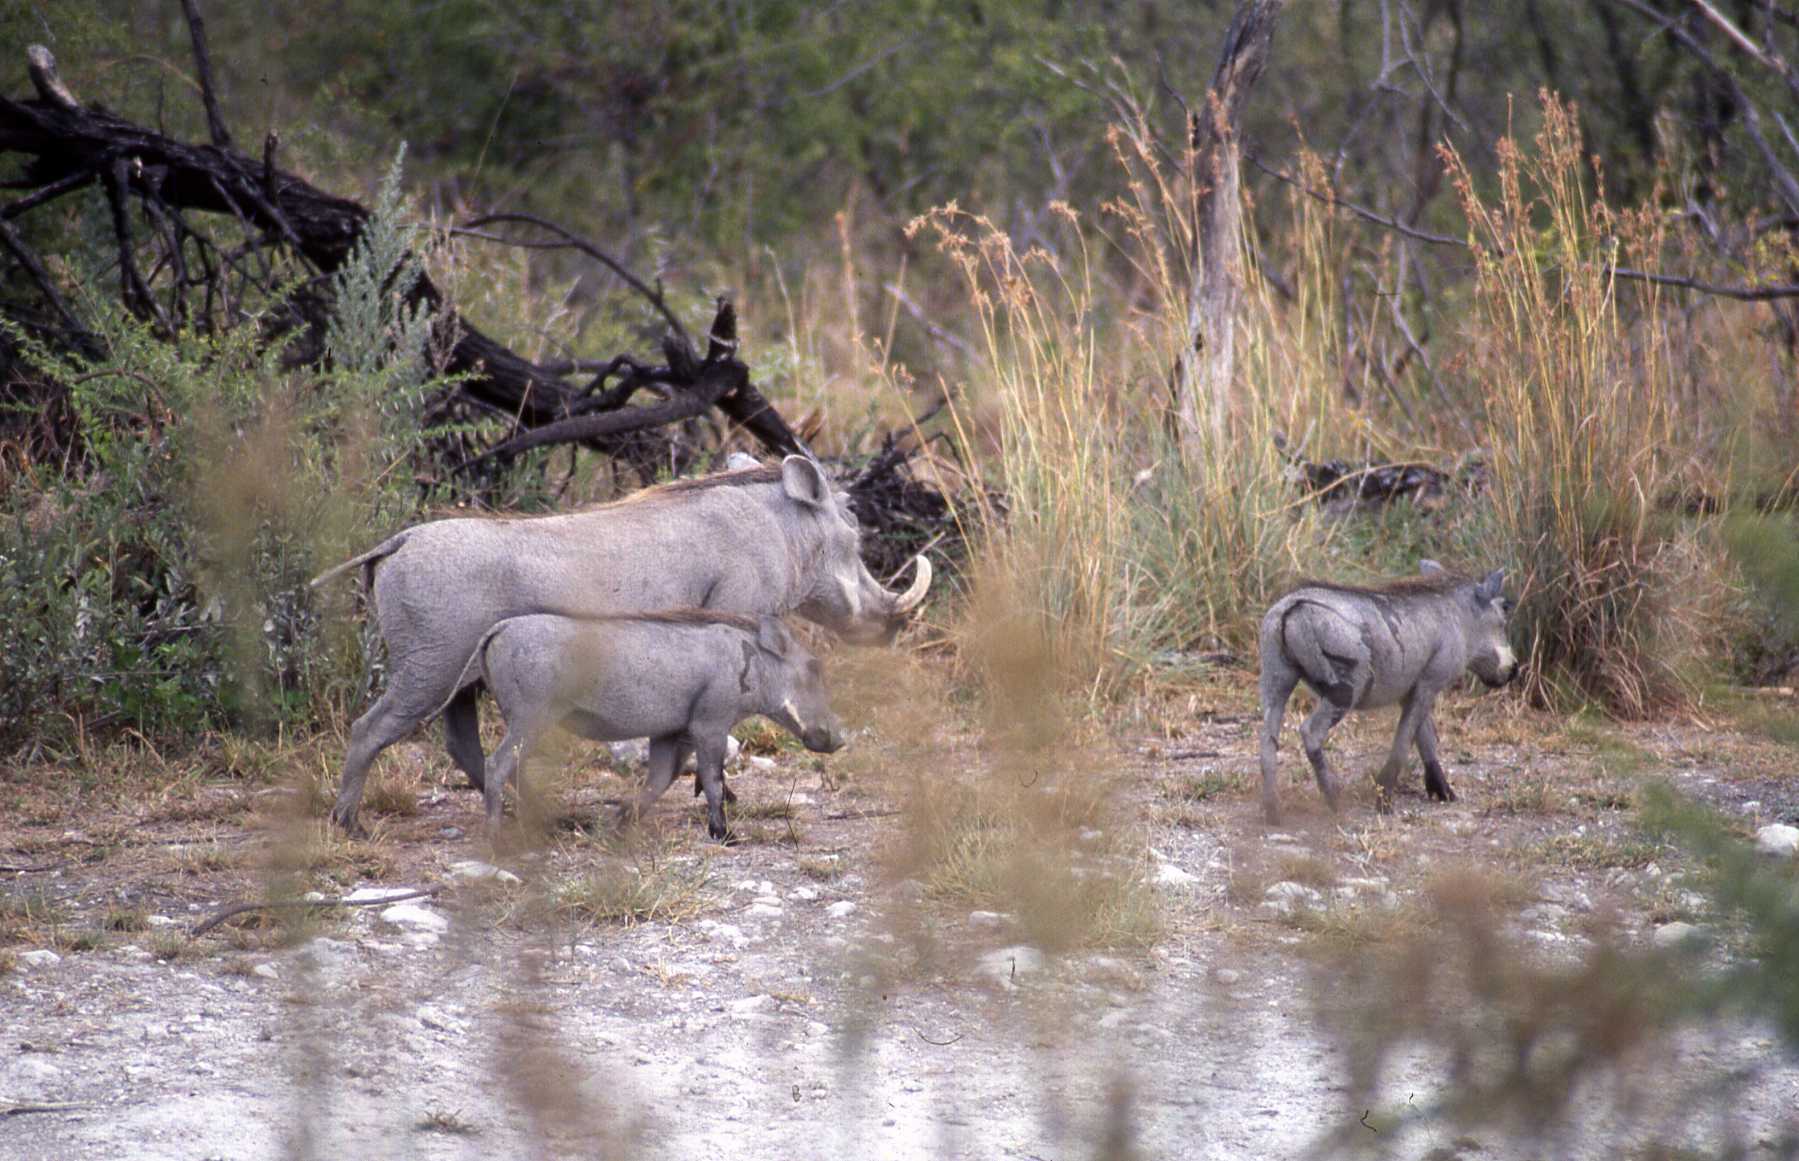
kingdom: Animalia
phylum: Chordata
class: Mammalia
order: Artiodactyla
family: Suidae
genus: Phacochoerus
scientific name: Phacochoerus africanus
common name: Common warthog
